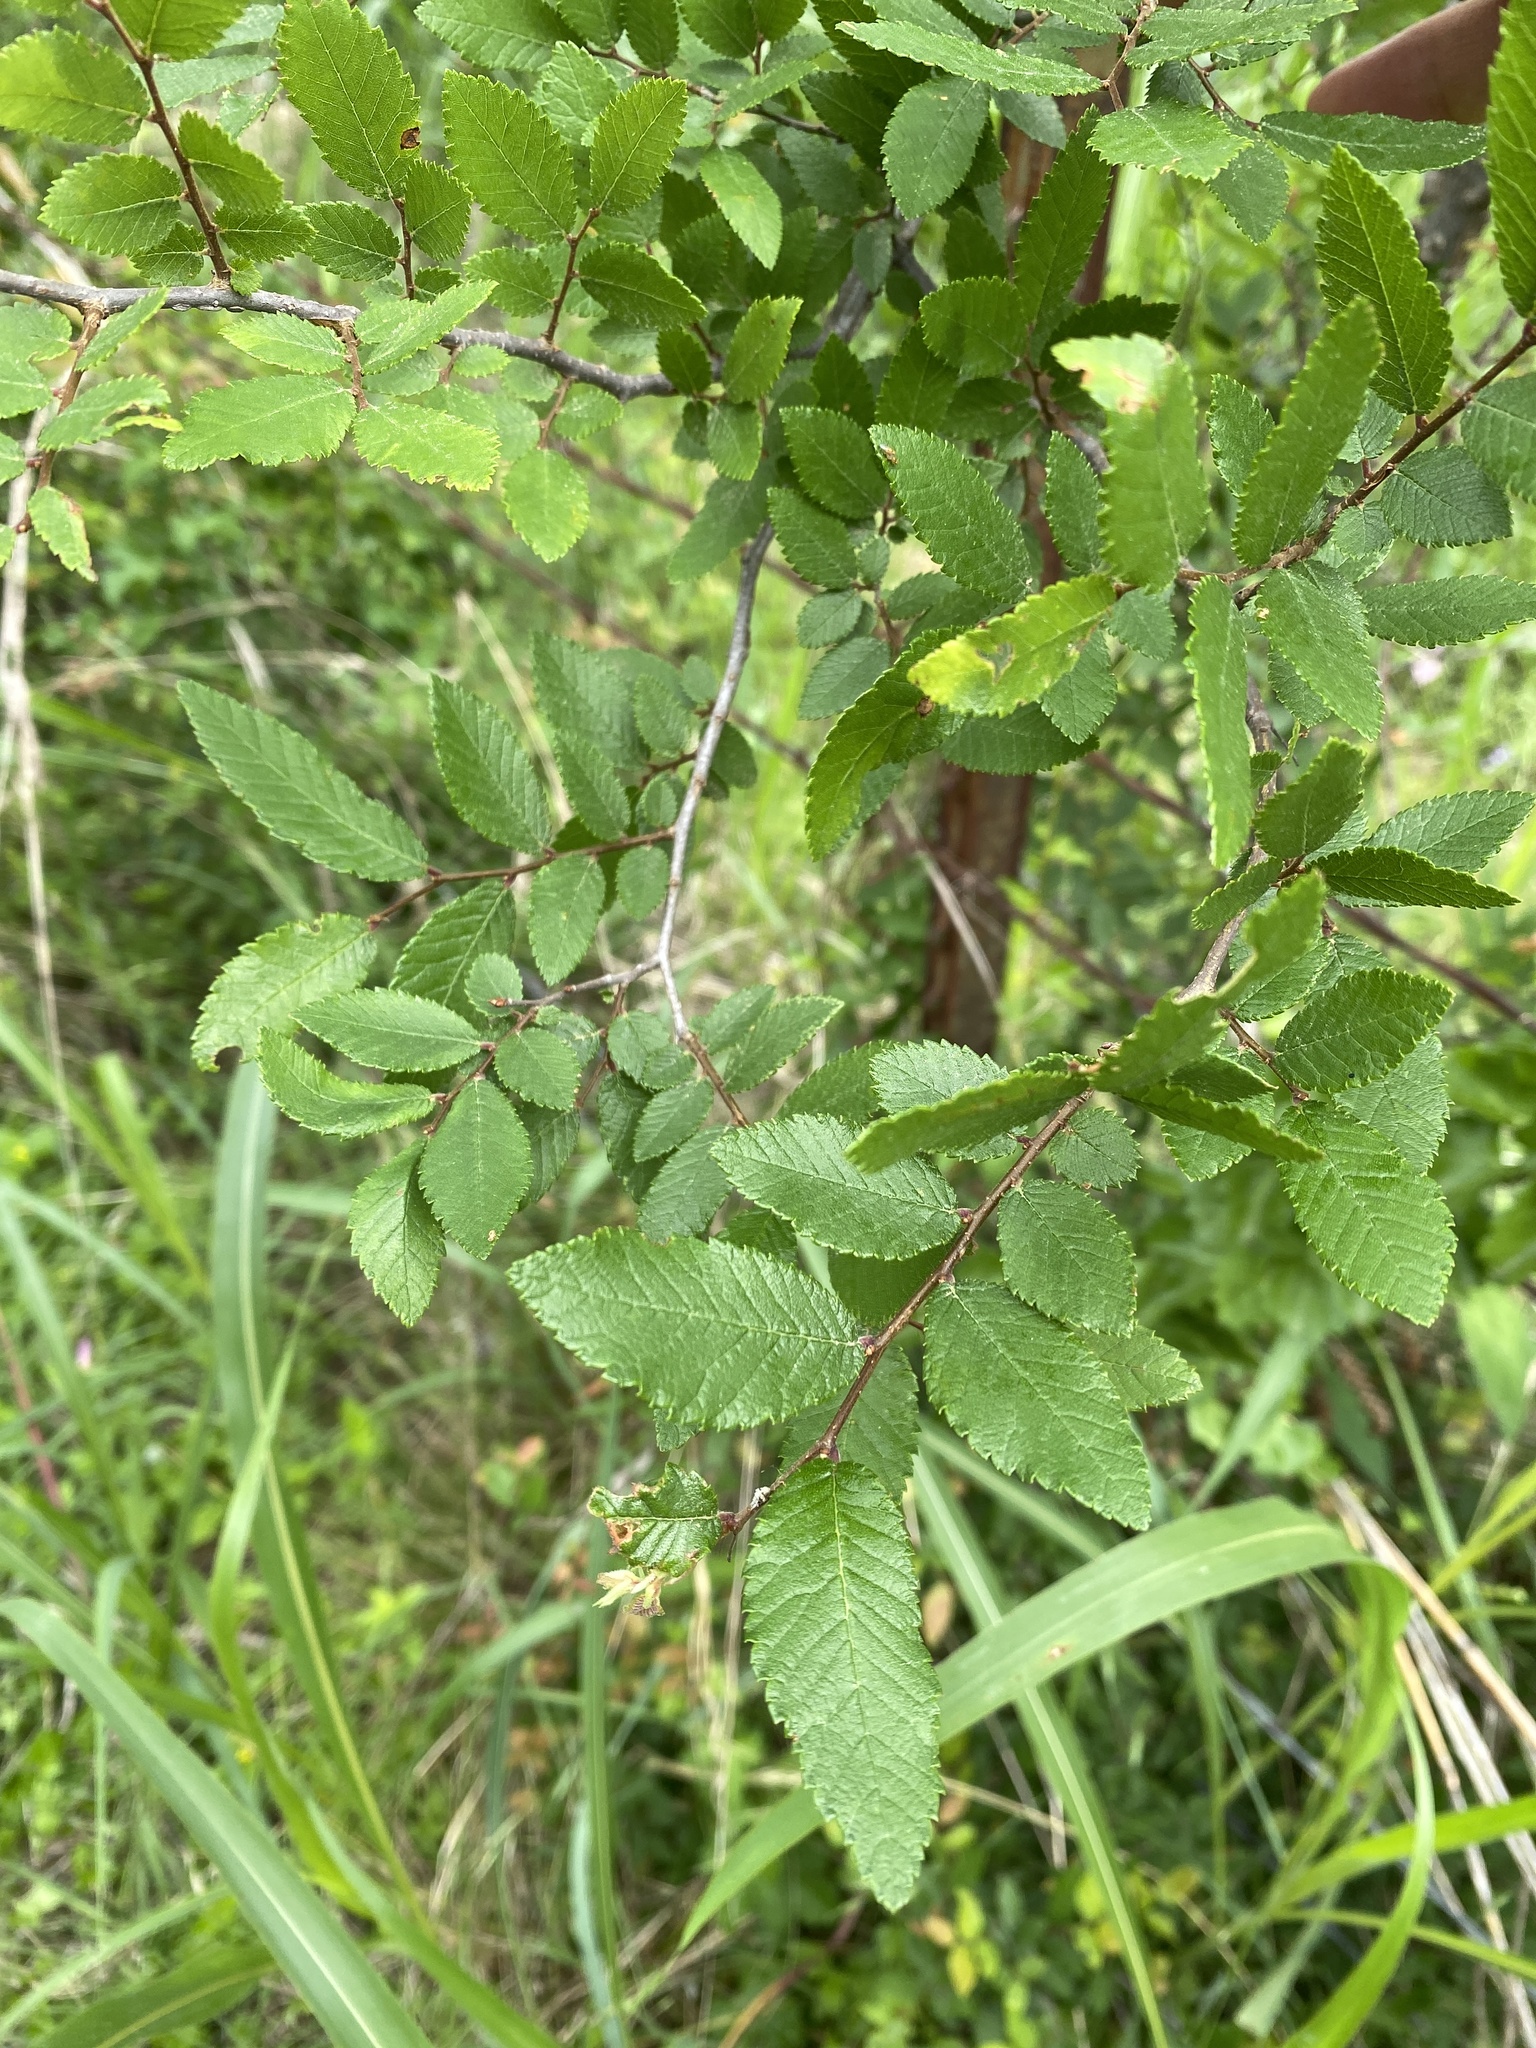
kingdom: Plantae
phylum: Tracheophyta
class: Magnoliopsida
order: Rosales
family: Ulmaceae
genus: Ulmus
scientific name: Ulmus crassifolia
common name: Basket elm
